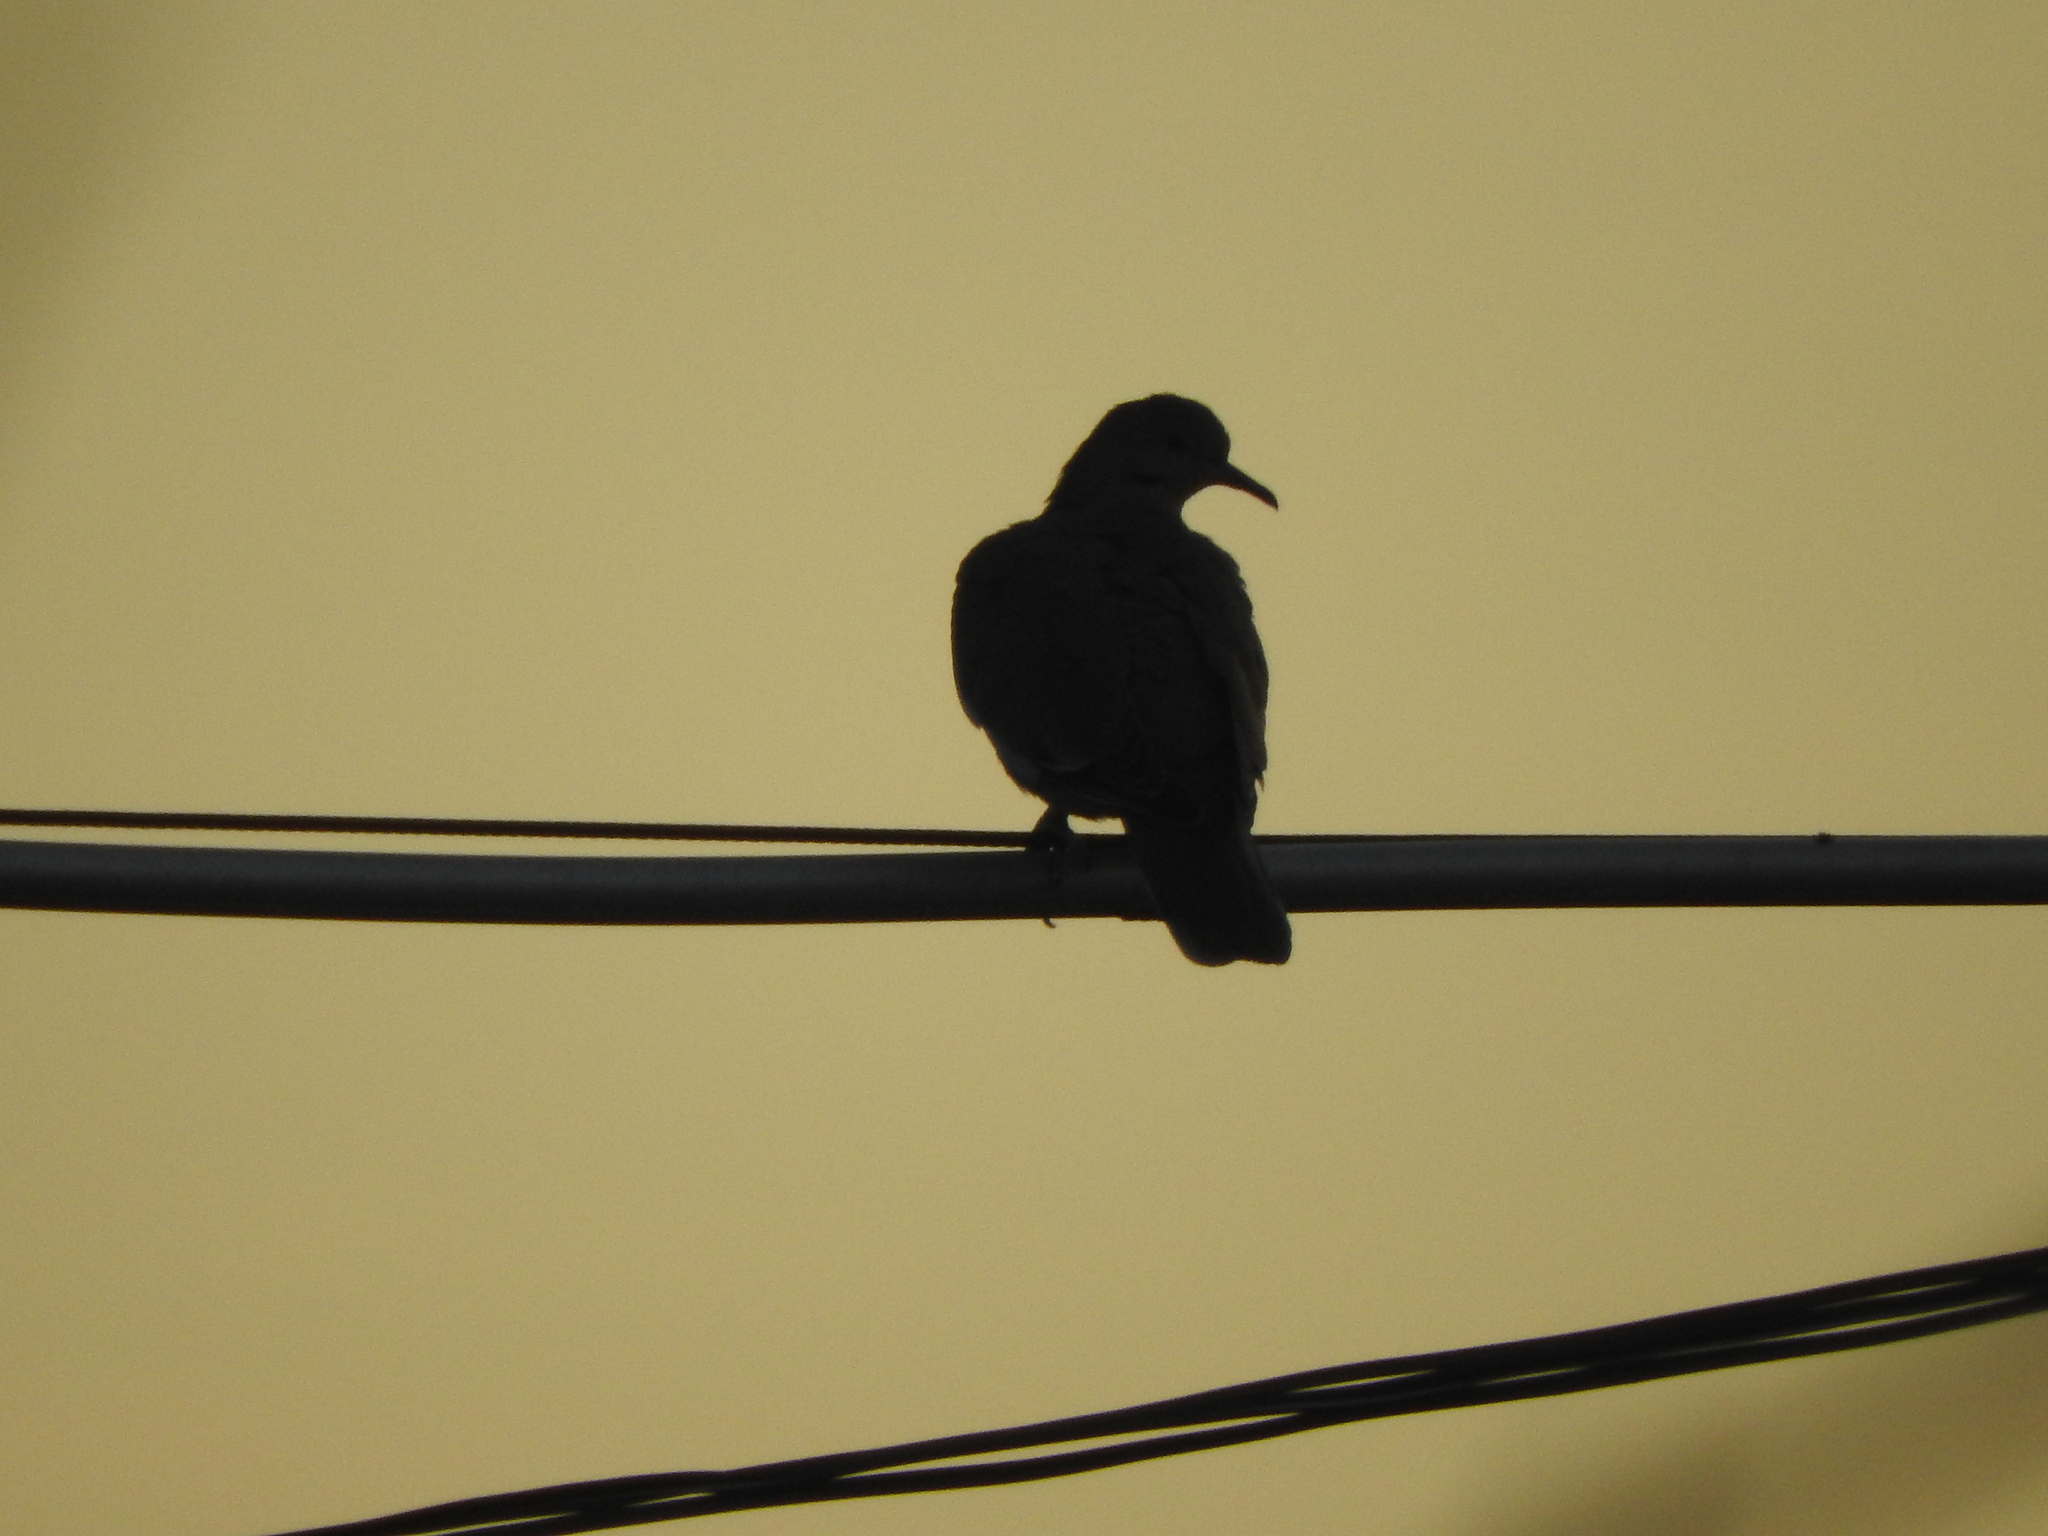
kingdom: Animalia
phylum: Chordata
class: Aves
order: Columbiformes
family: Columbidae
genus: Zenaida
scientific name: Zenaida asiatica
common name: White-winged dove
